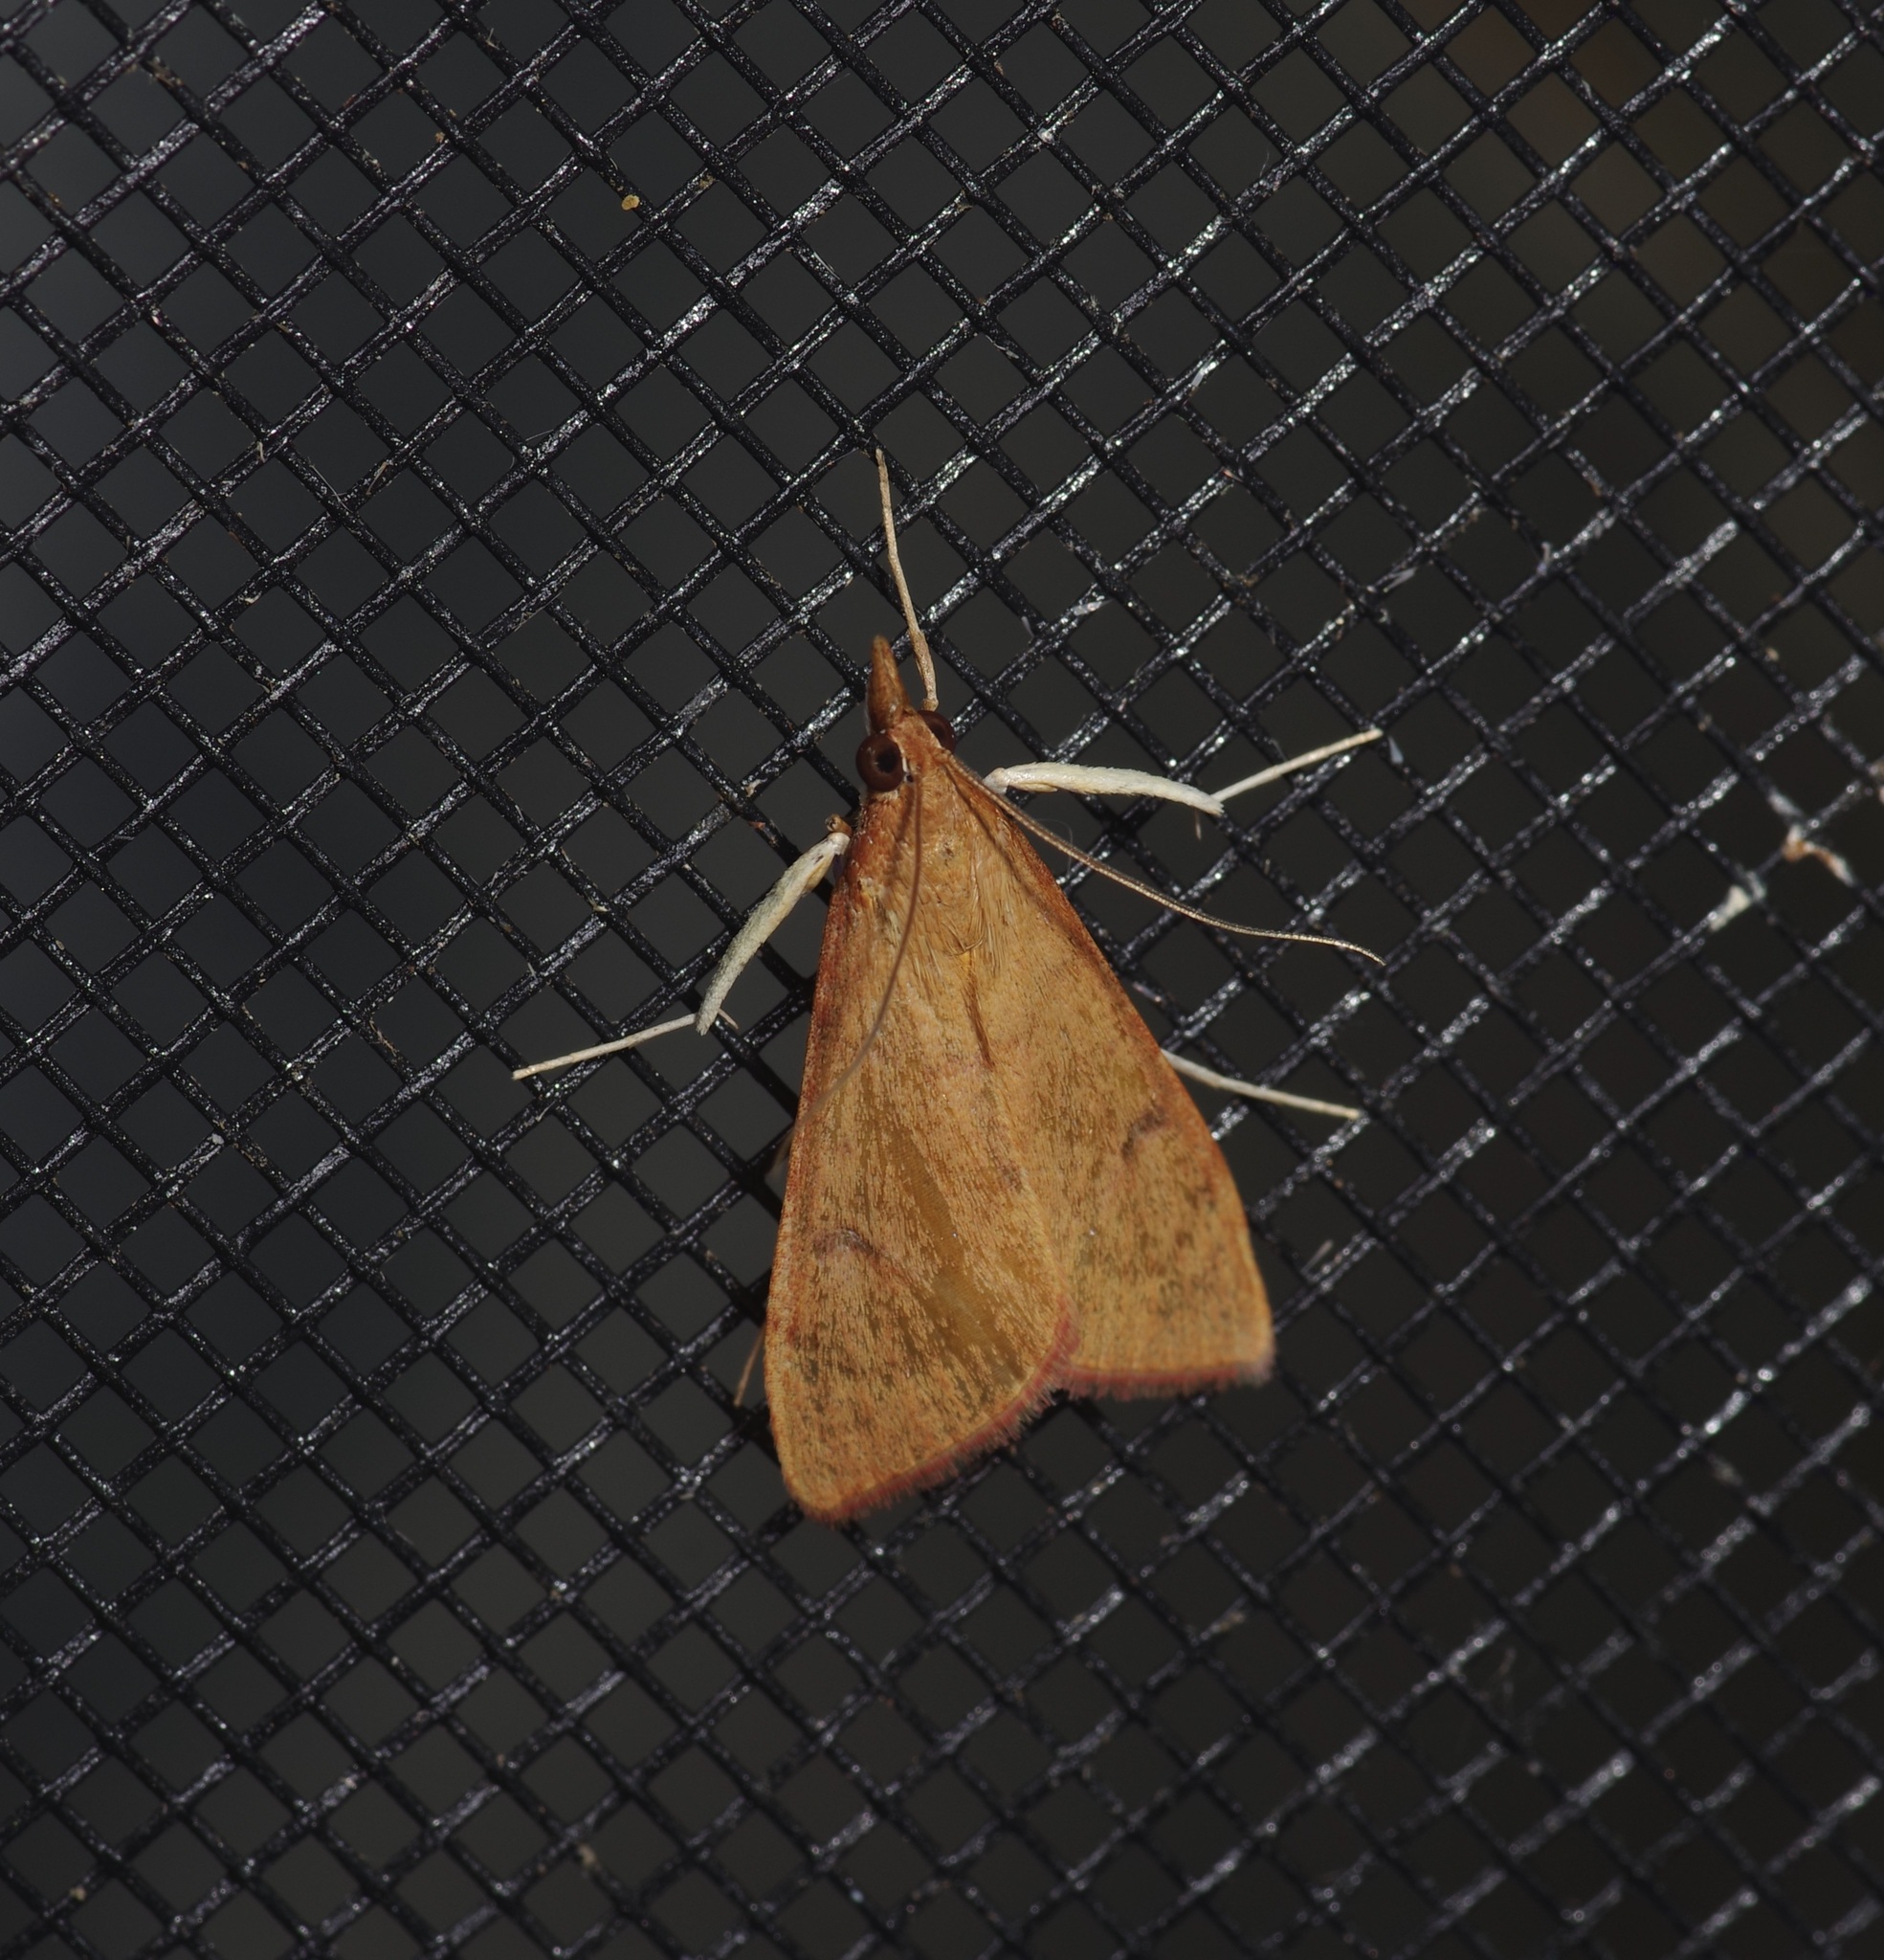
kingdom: Animalia
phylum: Arthropoda
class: Insecta
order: Lepidoptera
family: Crambidae
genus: Uresiphita
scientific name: Uresiphita reversalis
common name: Genista broom moth
